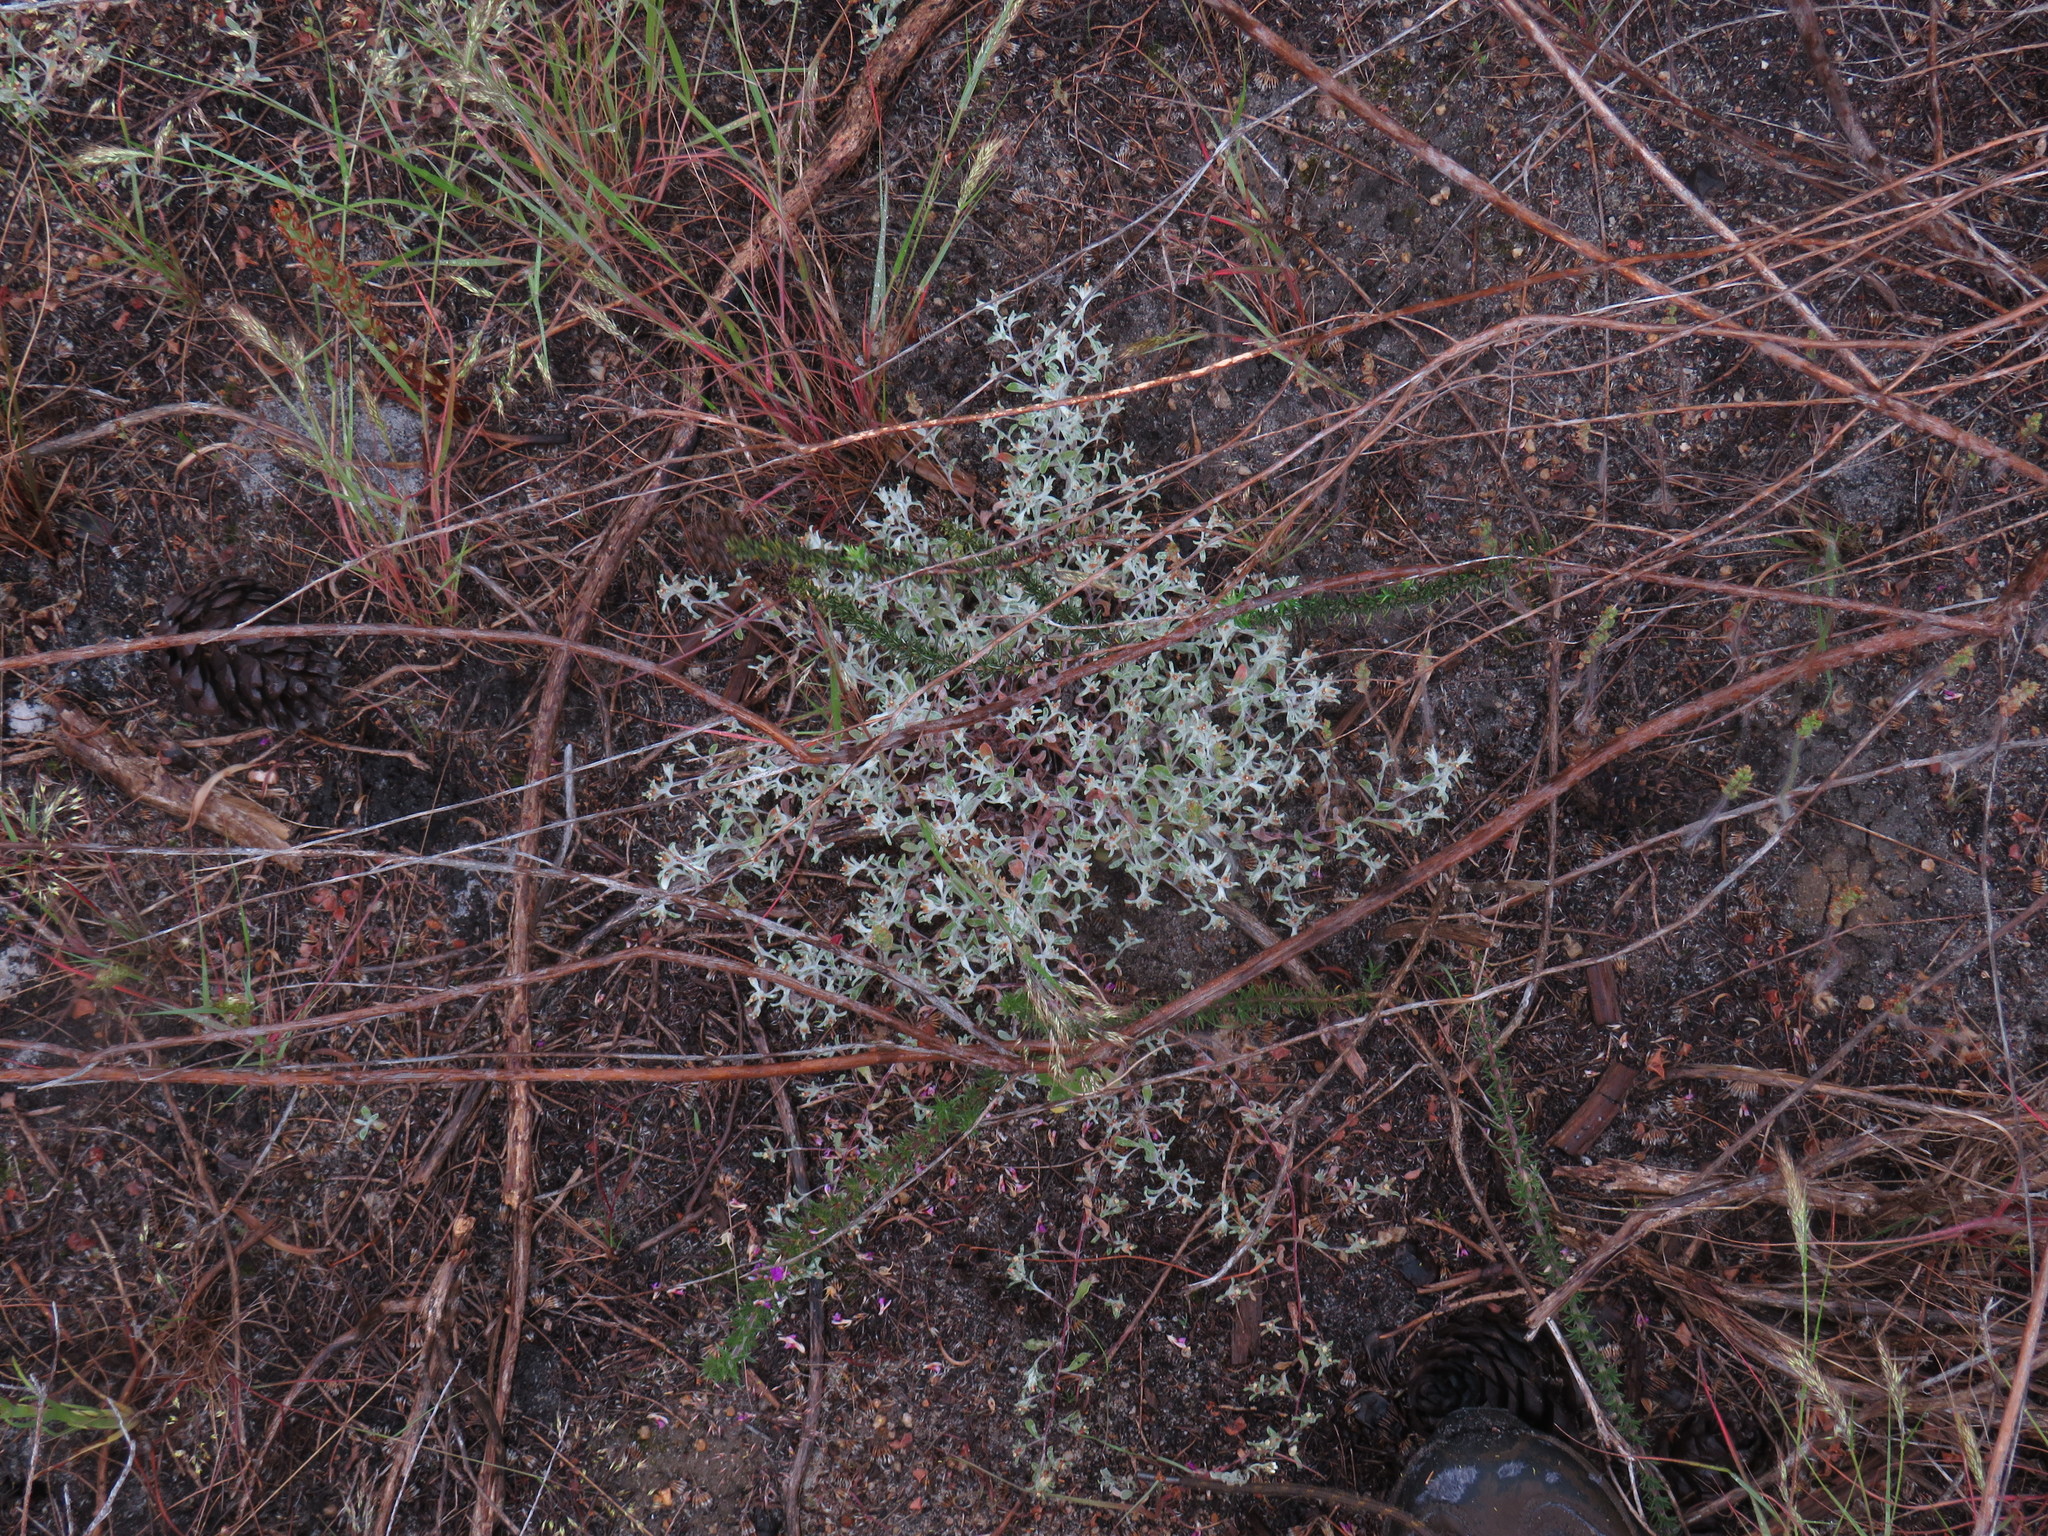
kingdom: Plantae
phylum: Tracheophyta
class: Magnoliopsida
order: Asterales
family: Asteraceae
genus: Helichrysum
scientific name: Helichrysum indicum
